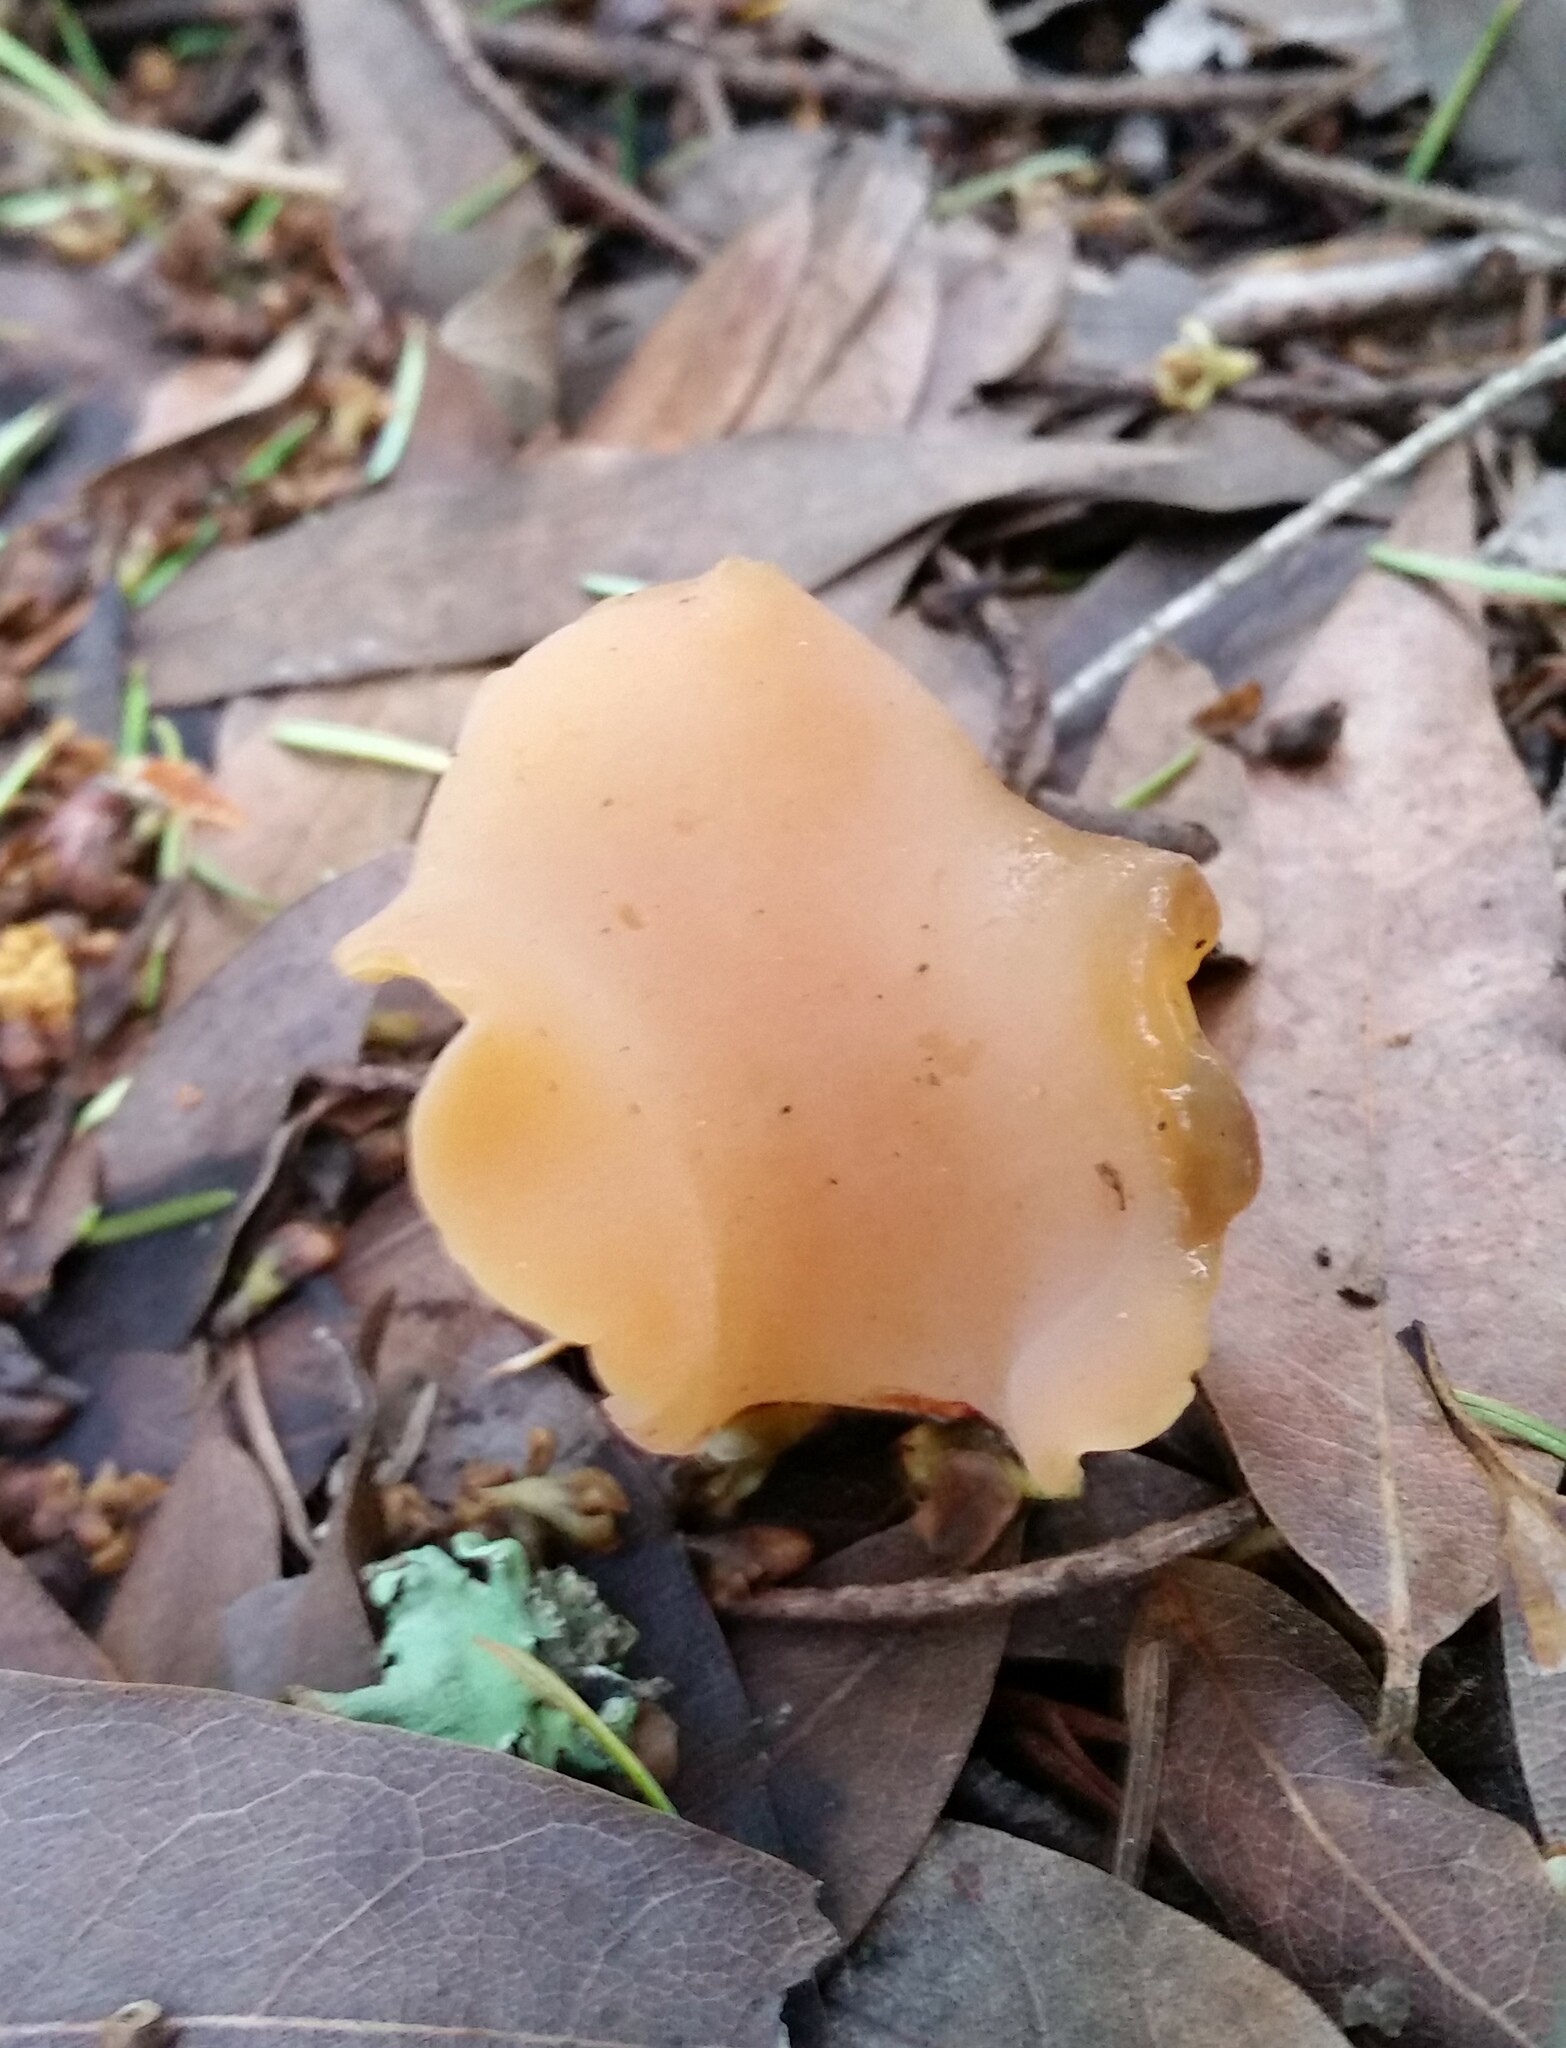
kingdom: Fungi
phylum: Basidiomycota
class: Agaricomycetes
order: Auriculariales
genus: Guepinia
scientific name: Guepinia helvelloides
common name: Salmon salad
